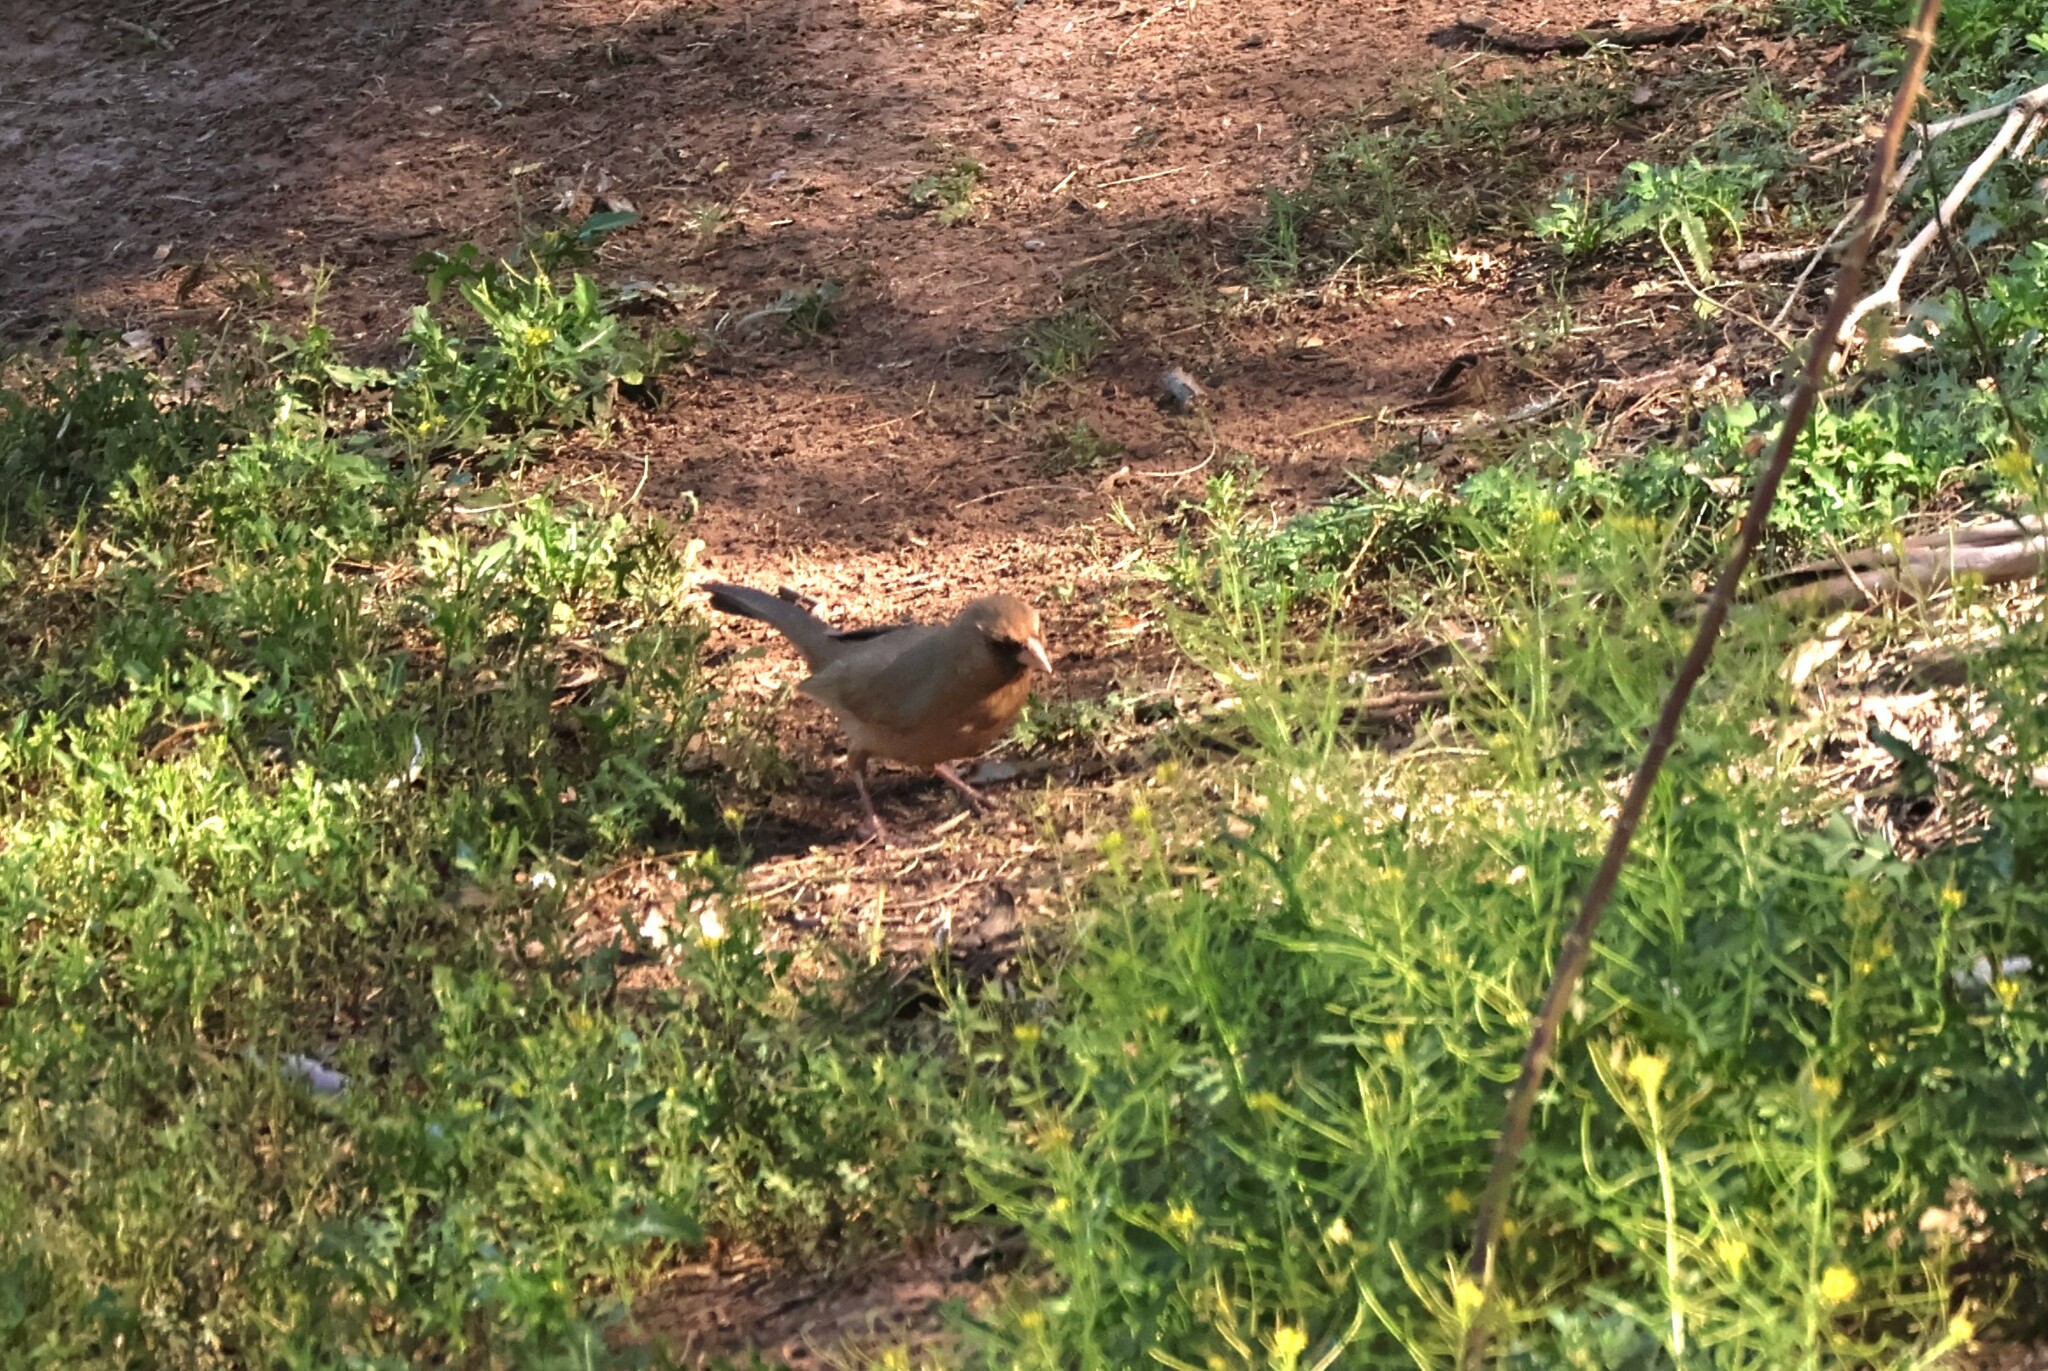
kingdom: Animalia
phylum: Chordata
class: Aves
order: Passeriformes
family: Passerellidae
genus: Melozone
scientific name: Melozone aberti
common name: Abert's towhee
